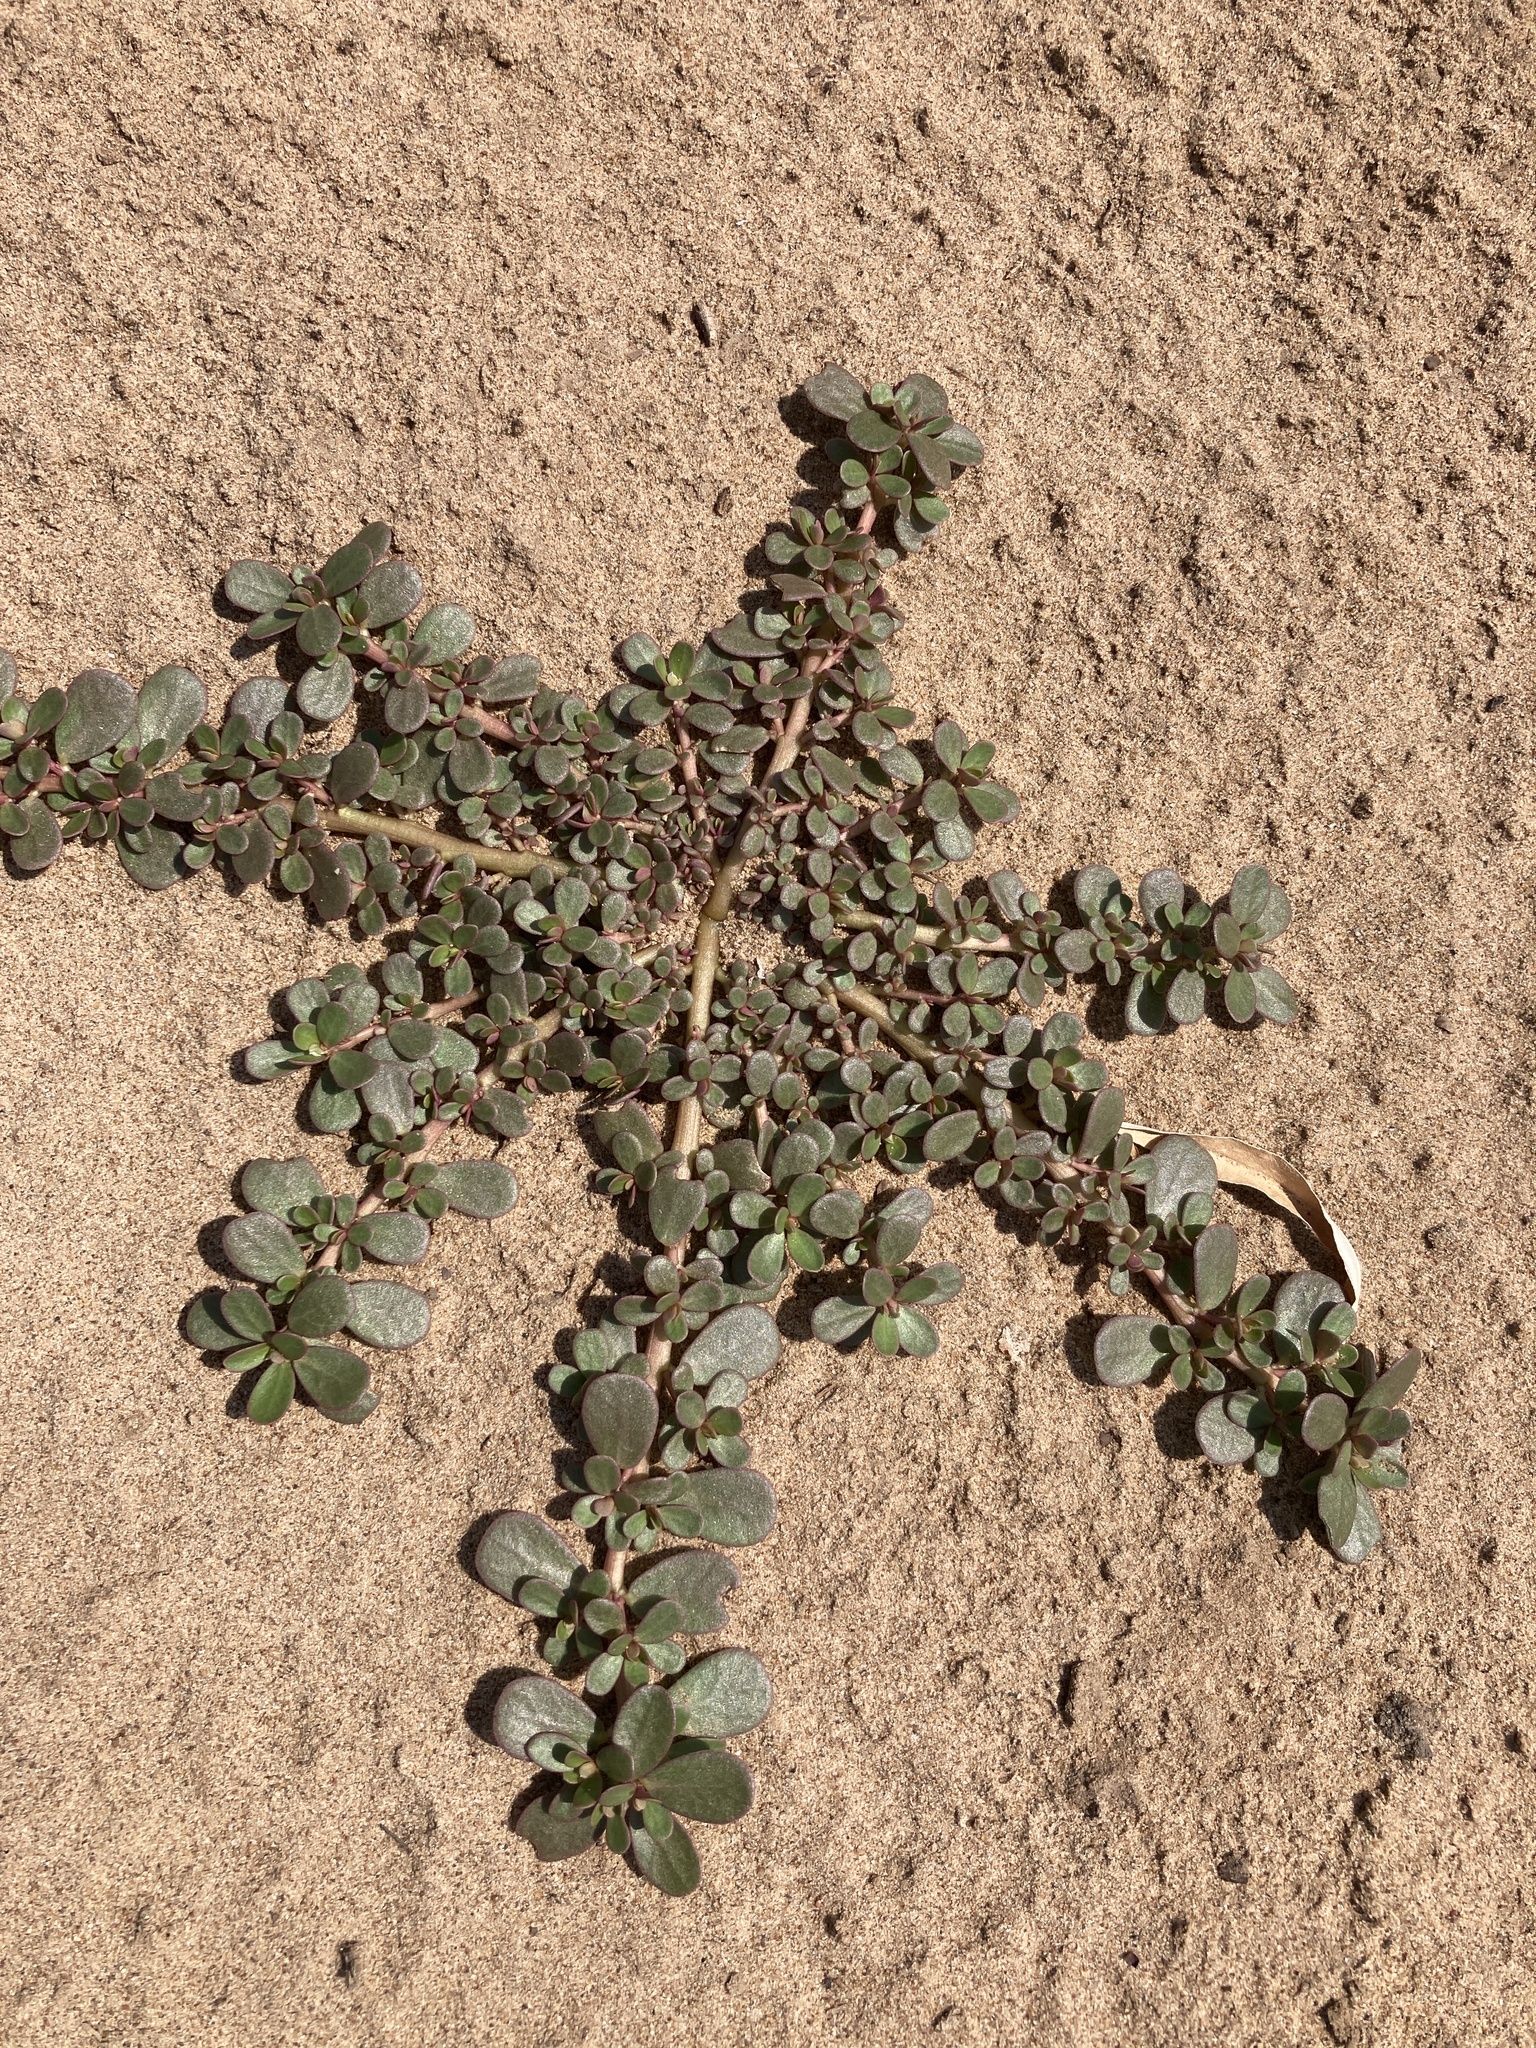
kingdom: Plantae
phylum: Tracheophyta
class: Magnoliopsida
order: Caryophyllales
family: Portulacaceae
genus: Portulaca
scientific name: Portulaca oleracea
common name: Common purslane
